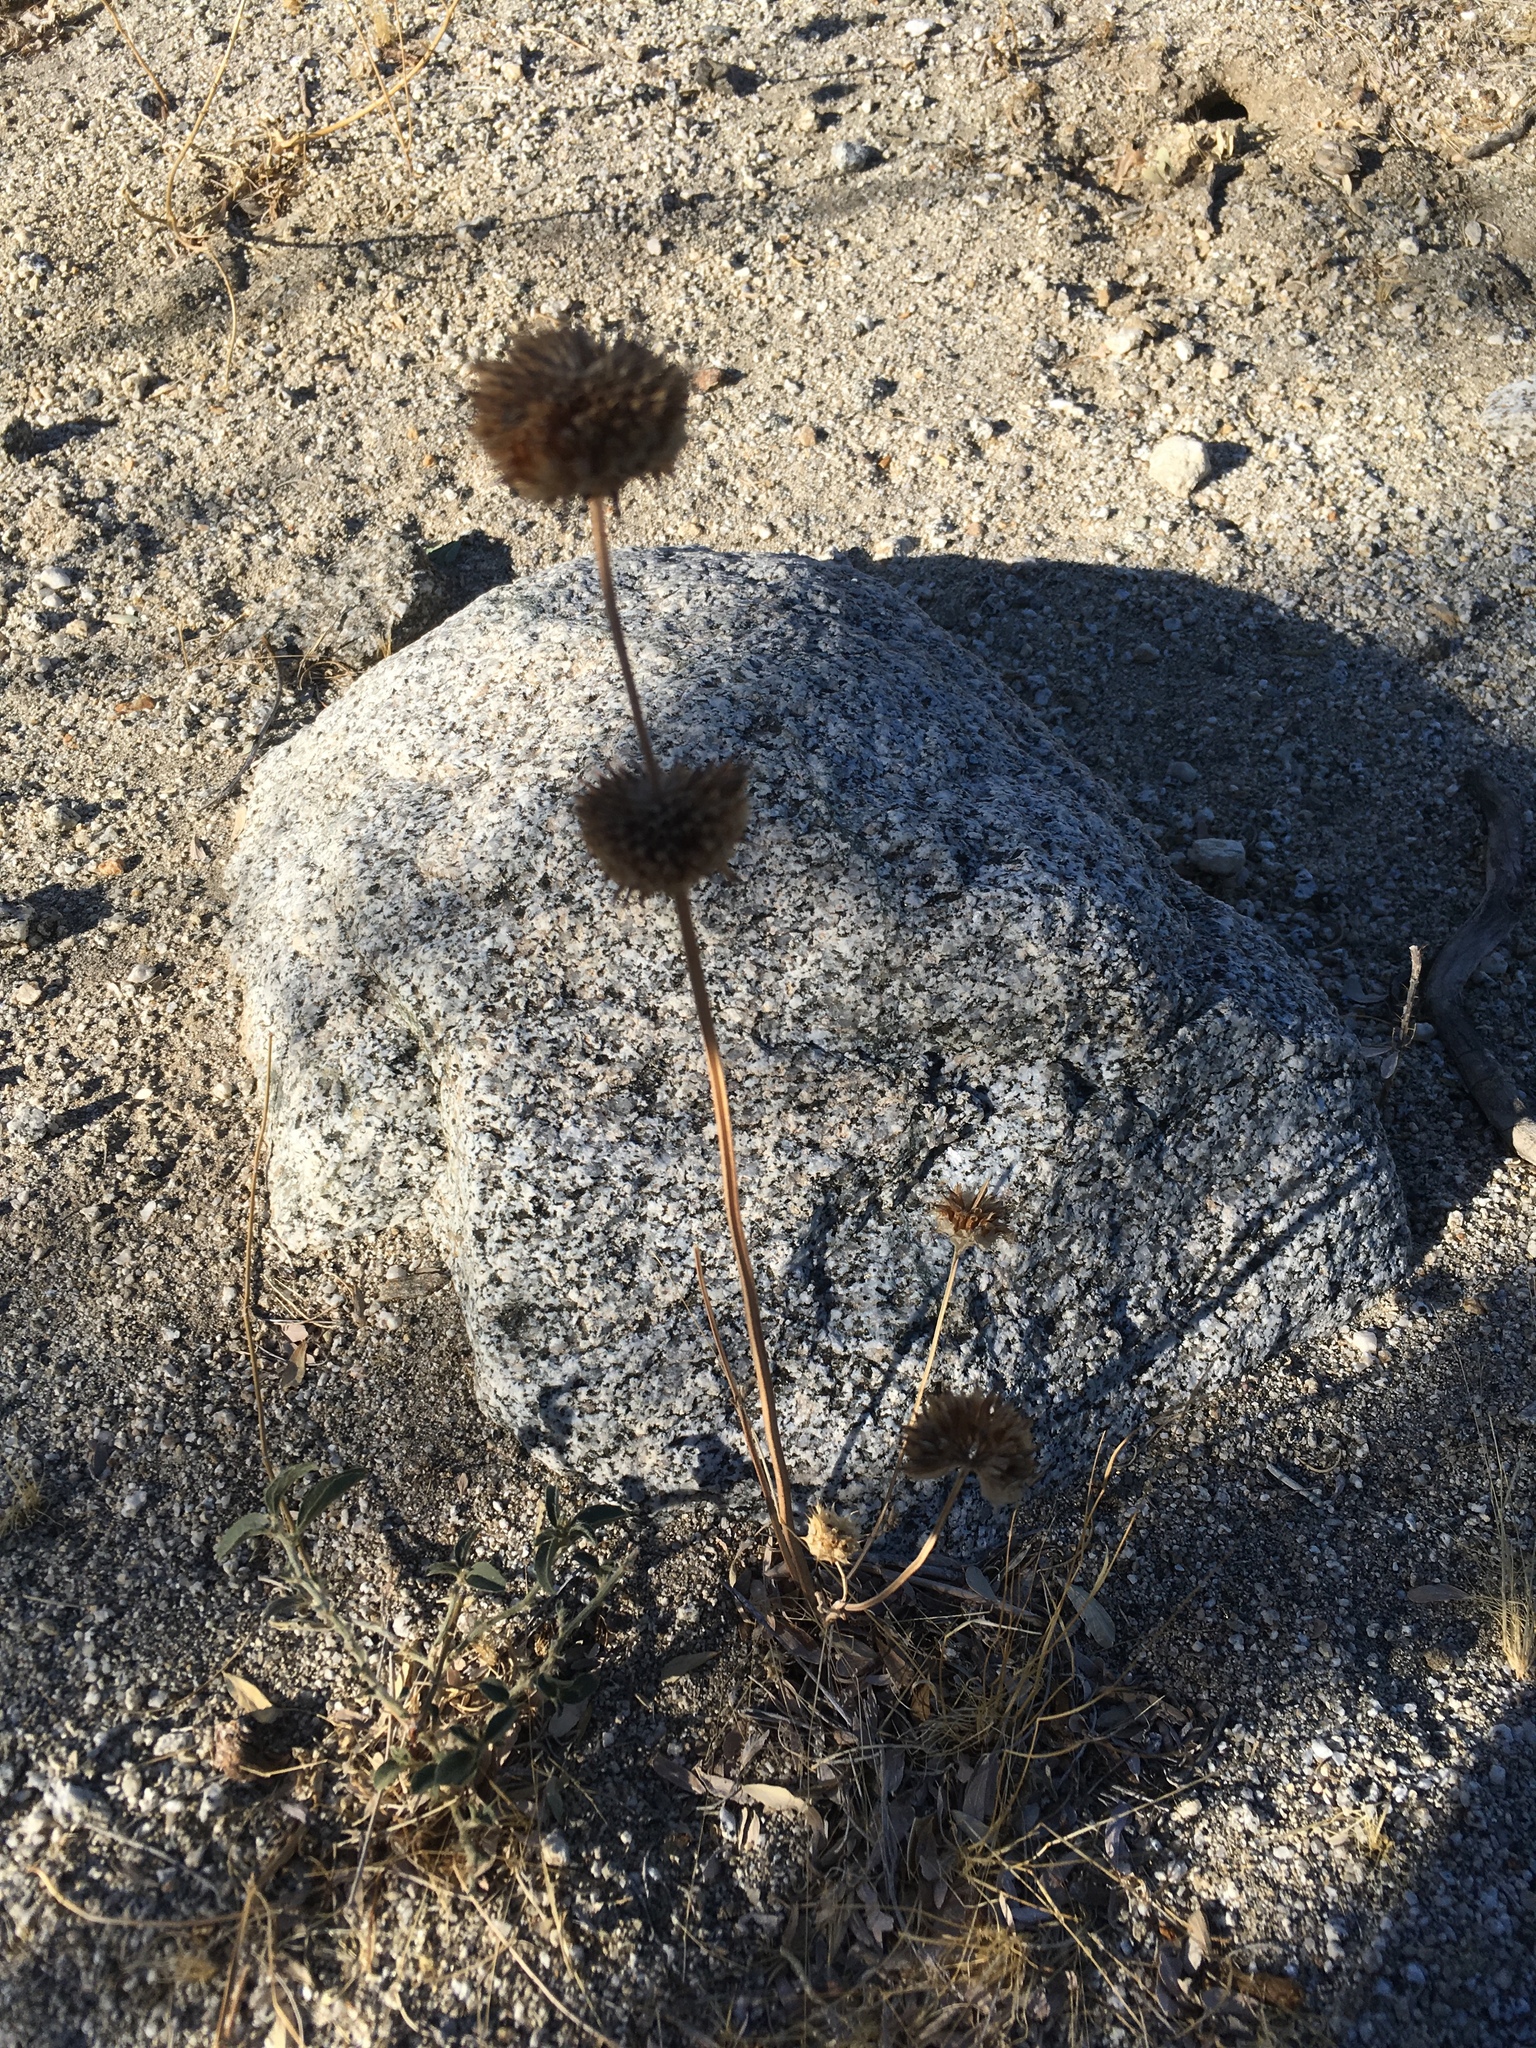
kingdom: Plantae
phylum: Tracheophyta
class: Magnoliopsida
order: Lamiales
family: Lamiaceae
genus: Salvia
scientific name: Salvia columbariae
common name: Chia
